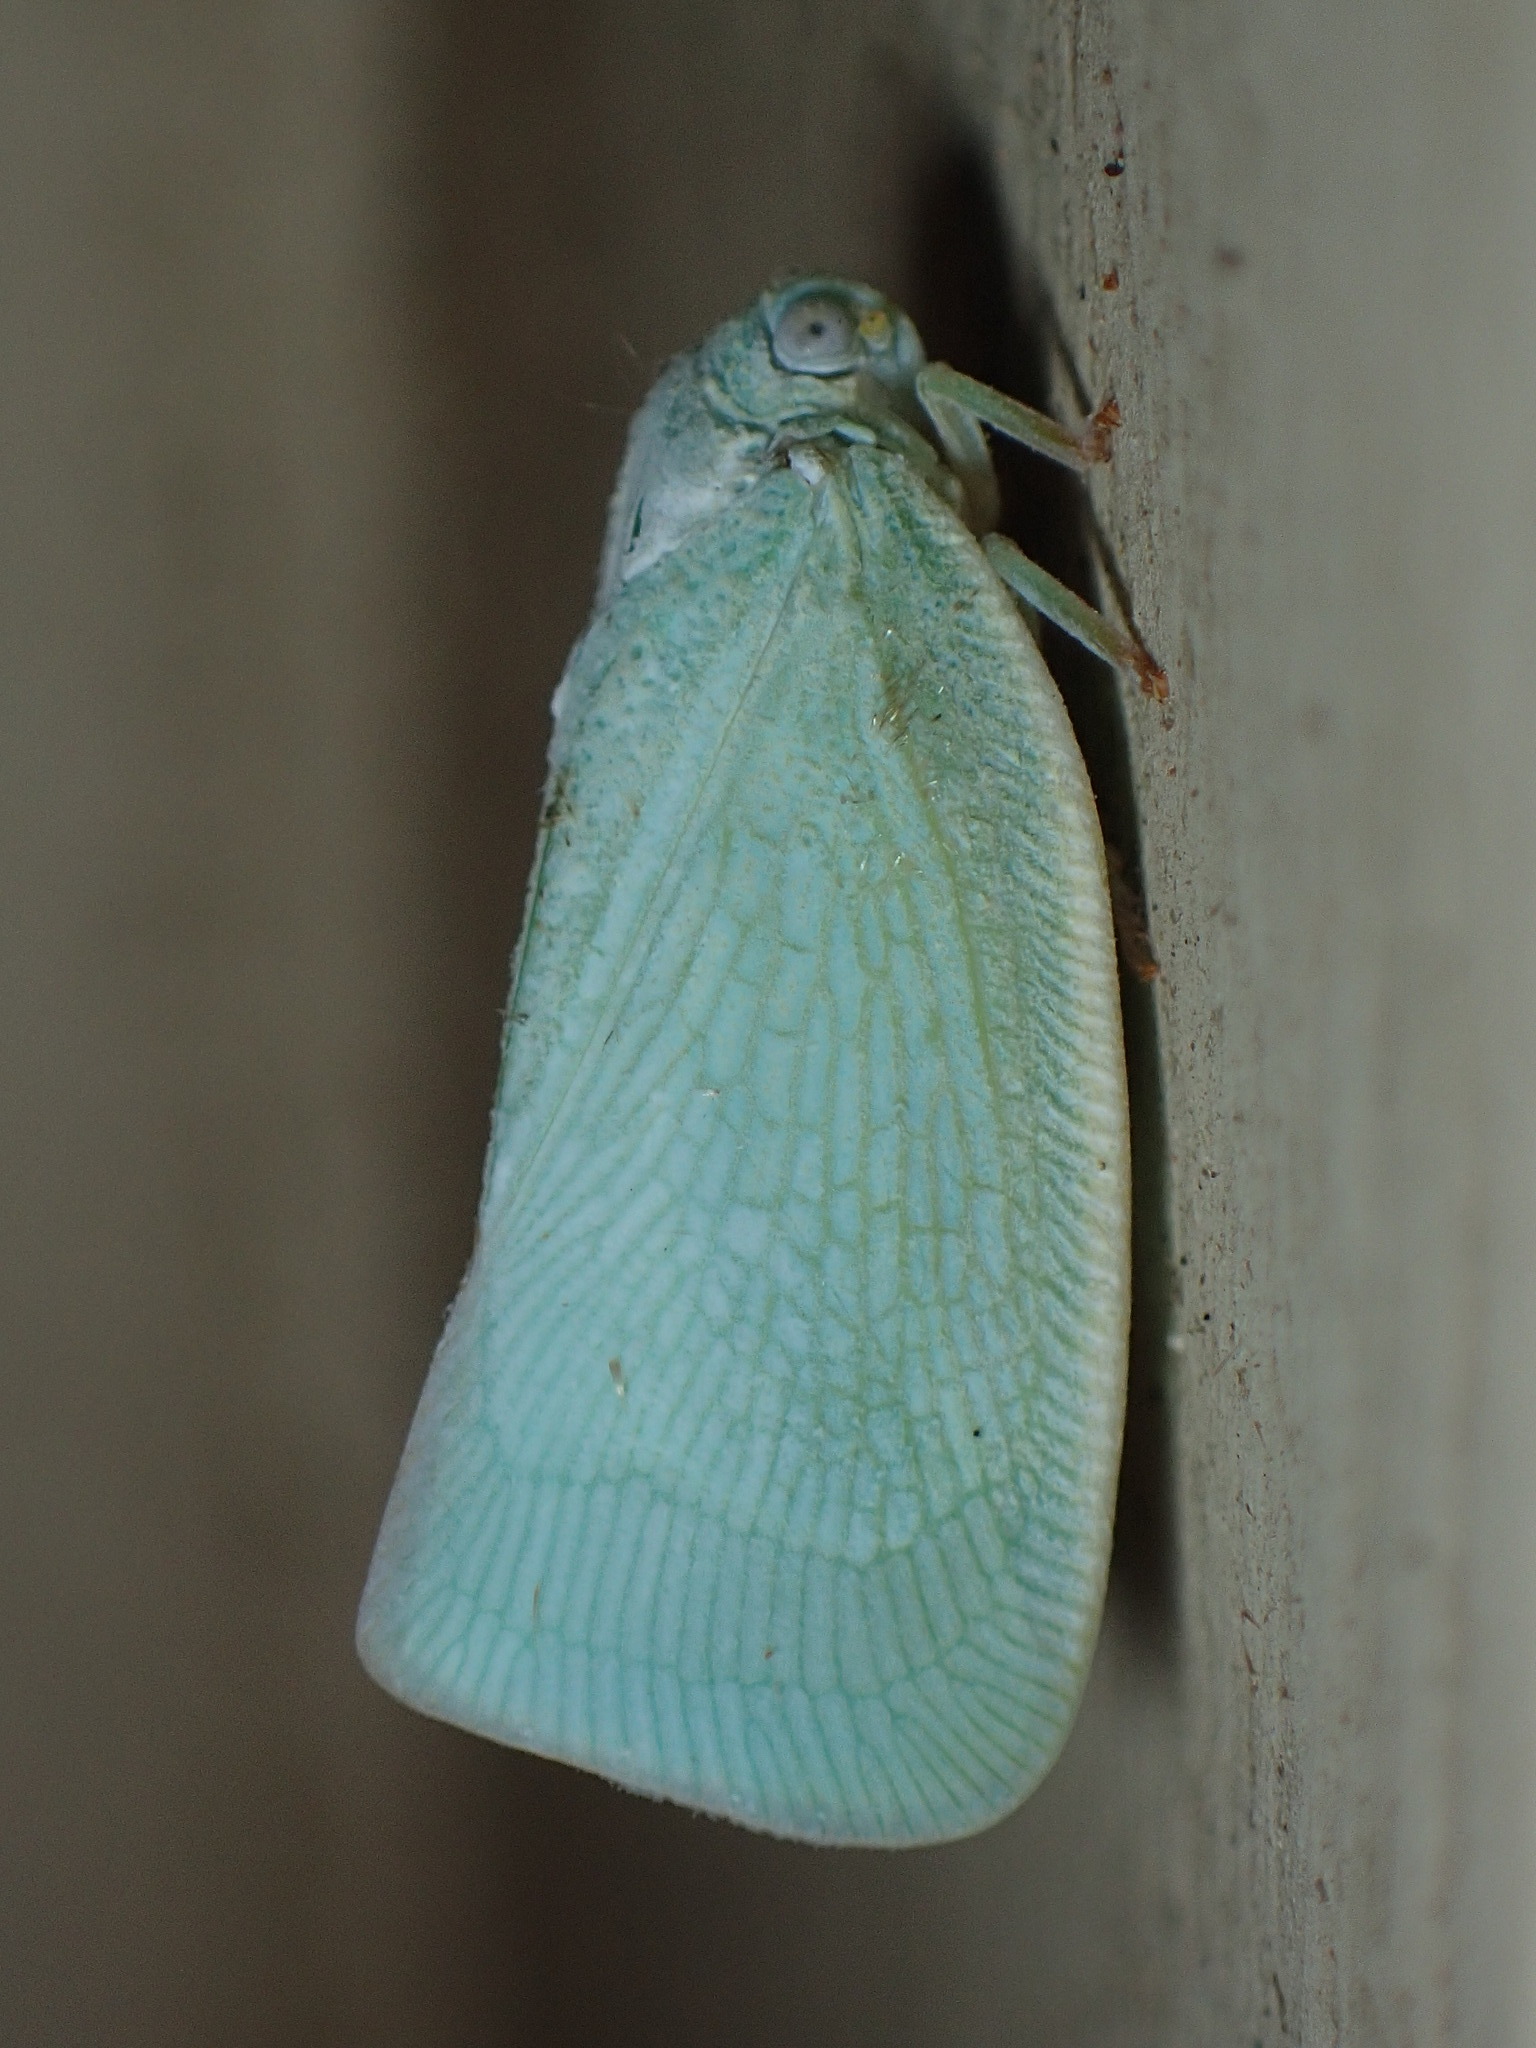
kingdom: Animalia
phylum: Arthropoda
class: Insecta
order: Hemiptera
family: Flatidae
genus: Flatormenis
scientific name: Flatormenis proxima
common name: Northern flatid planthopper
